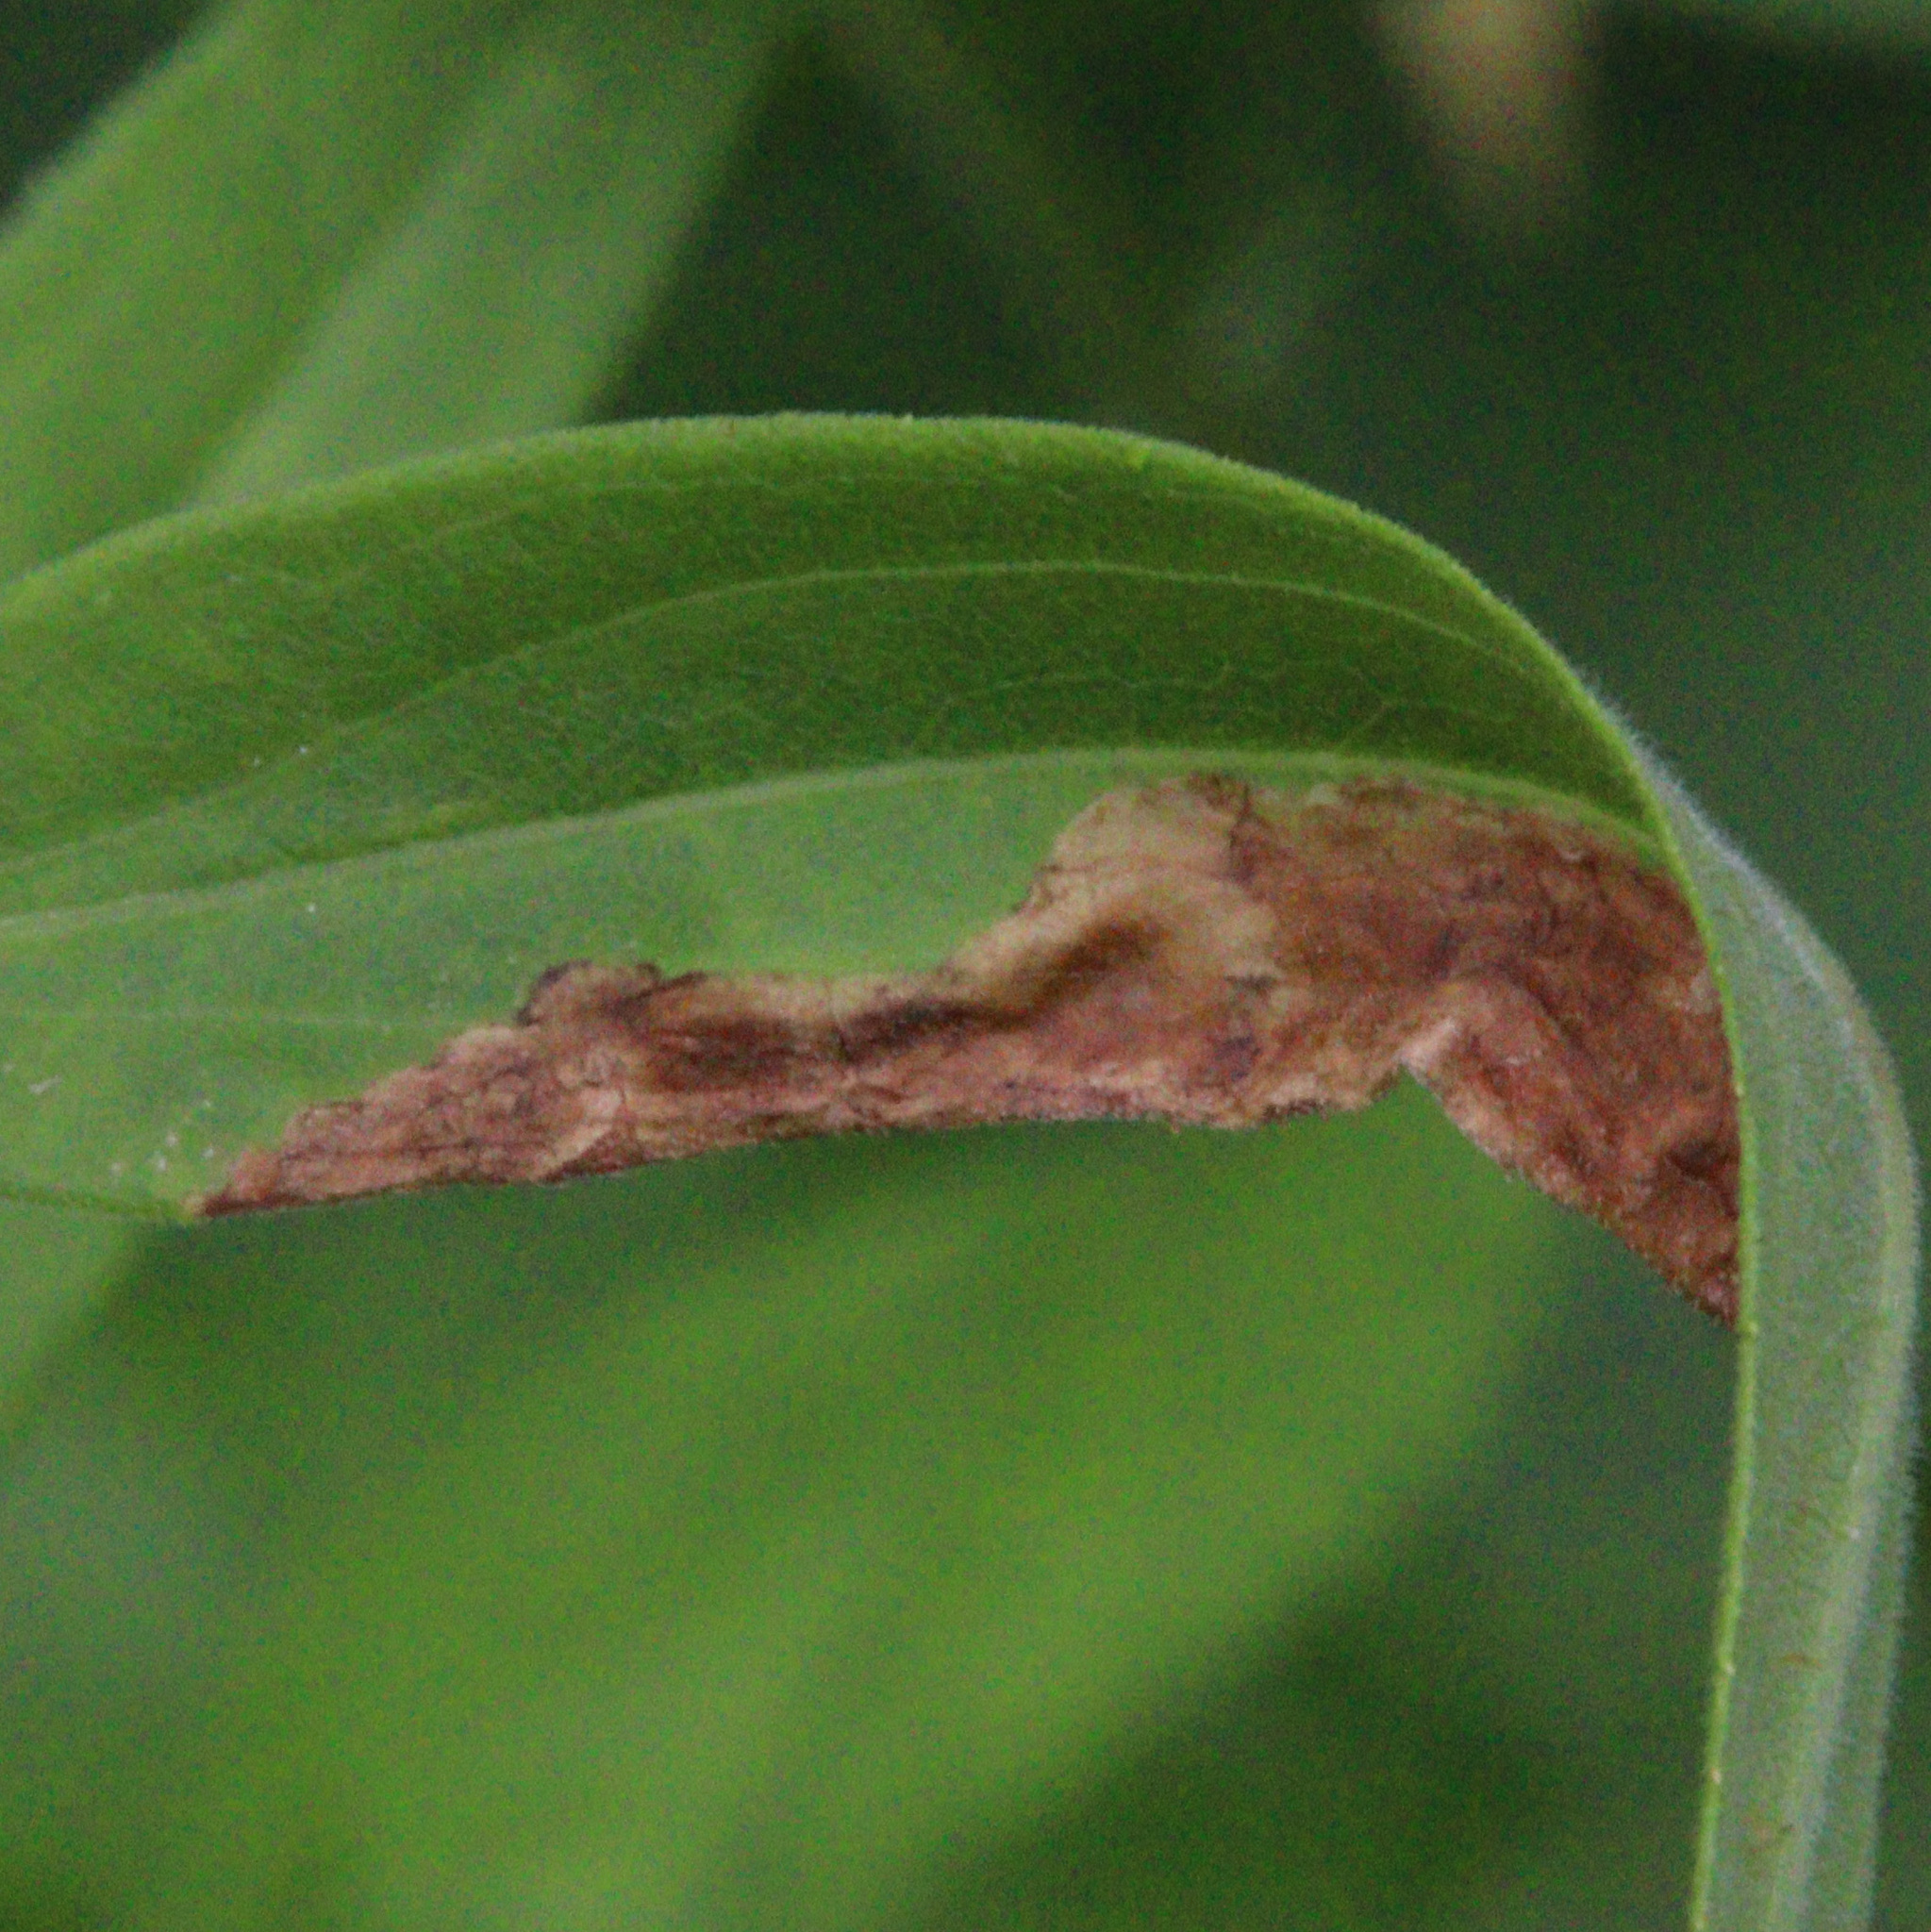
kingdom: Animalia
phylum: Arthropoda
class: Insecta
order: Diptera
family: Agromyzidae
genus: Nemorimyza
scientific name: Nemorimyza posticata
